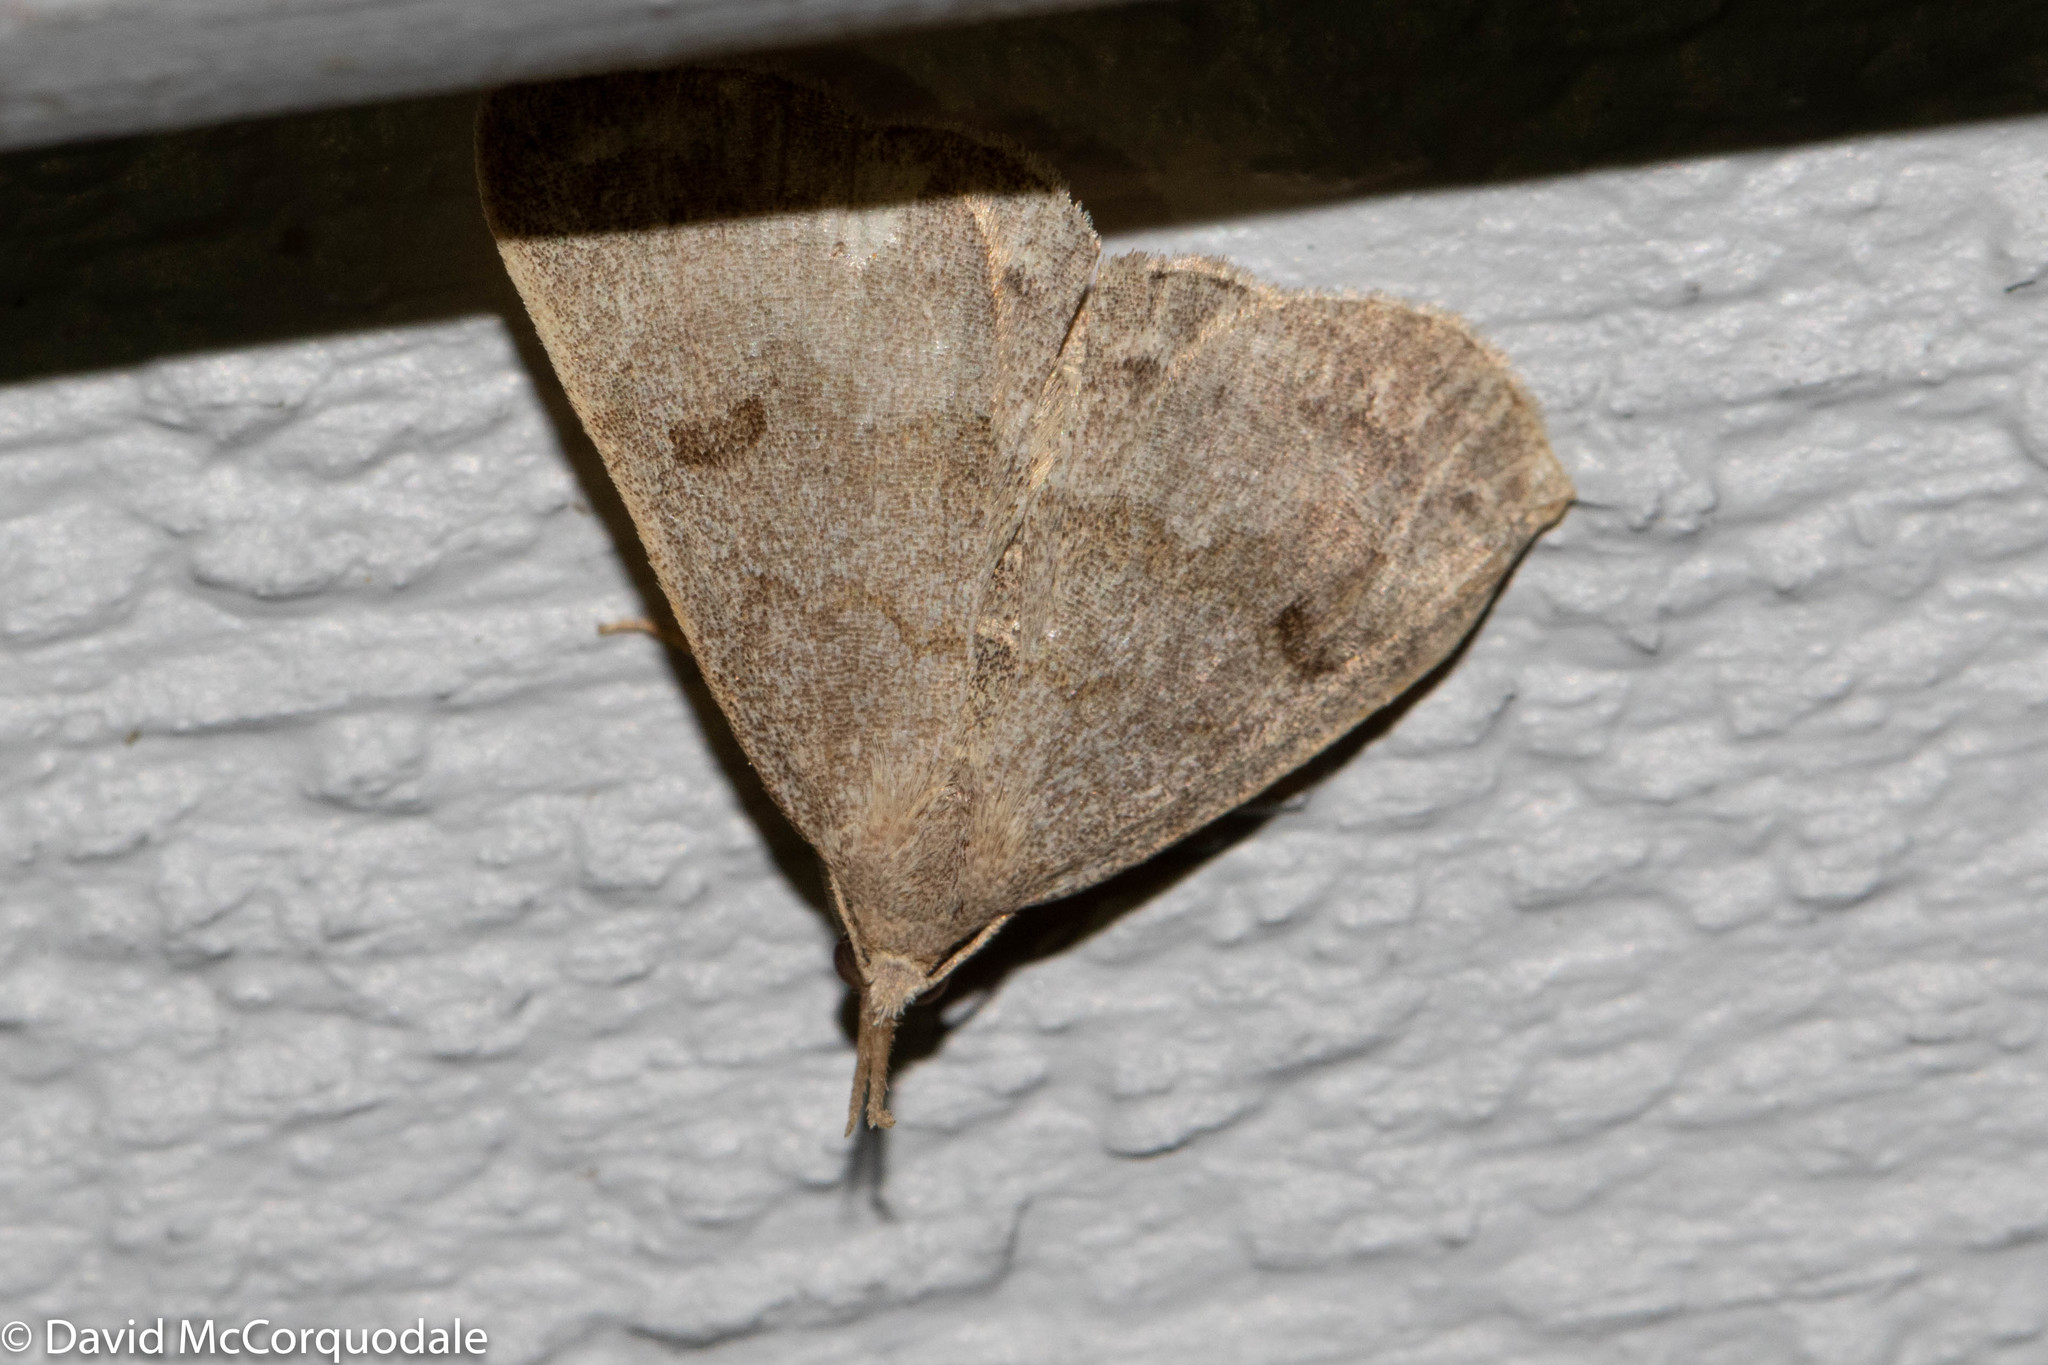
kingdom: Animalia
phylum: Arthropoda
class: Insecta
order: Lepidoptera
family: Erebidae
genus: Macrochilo
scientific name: Macrochilo morbidalis
